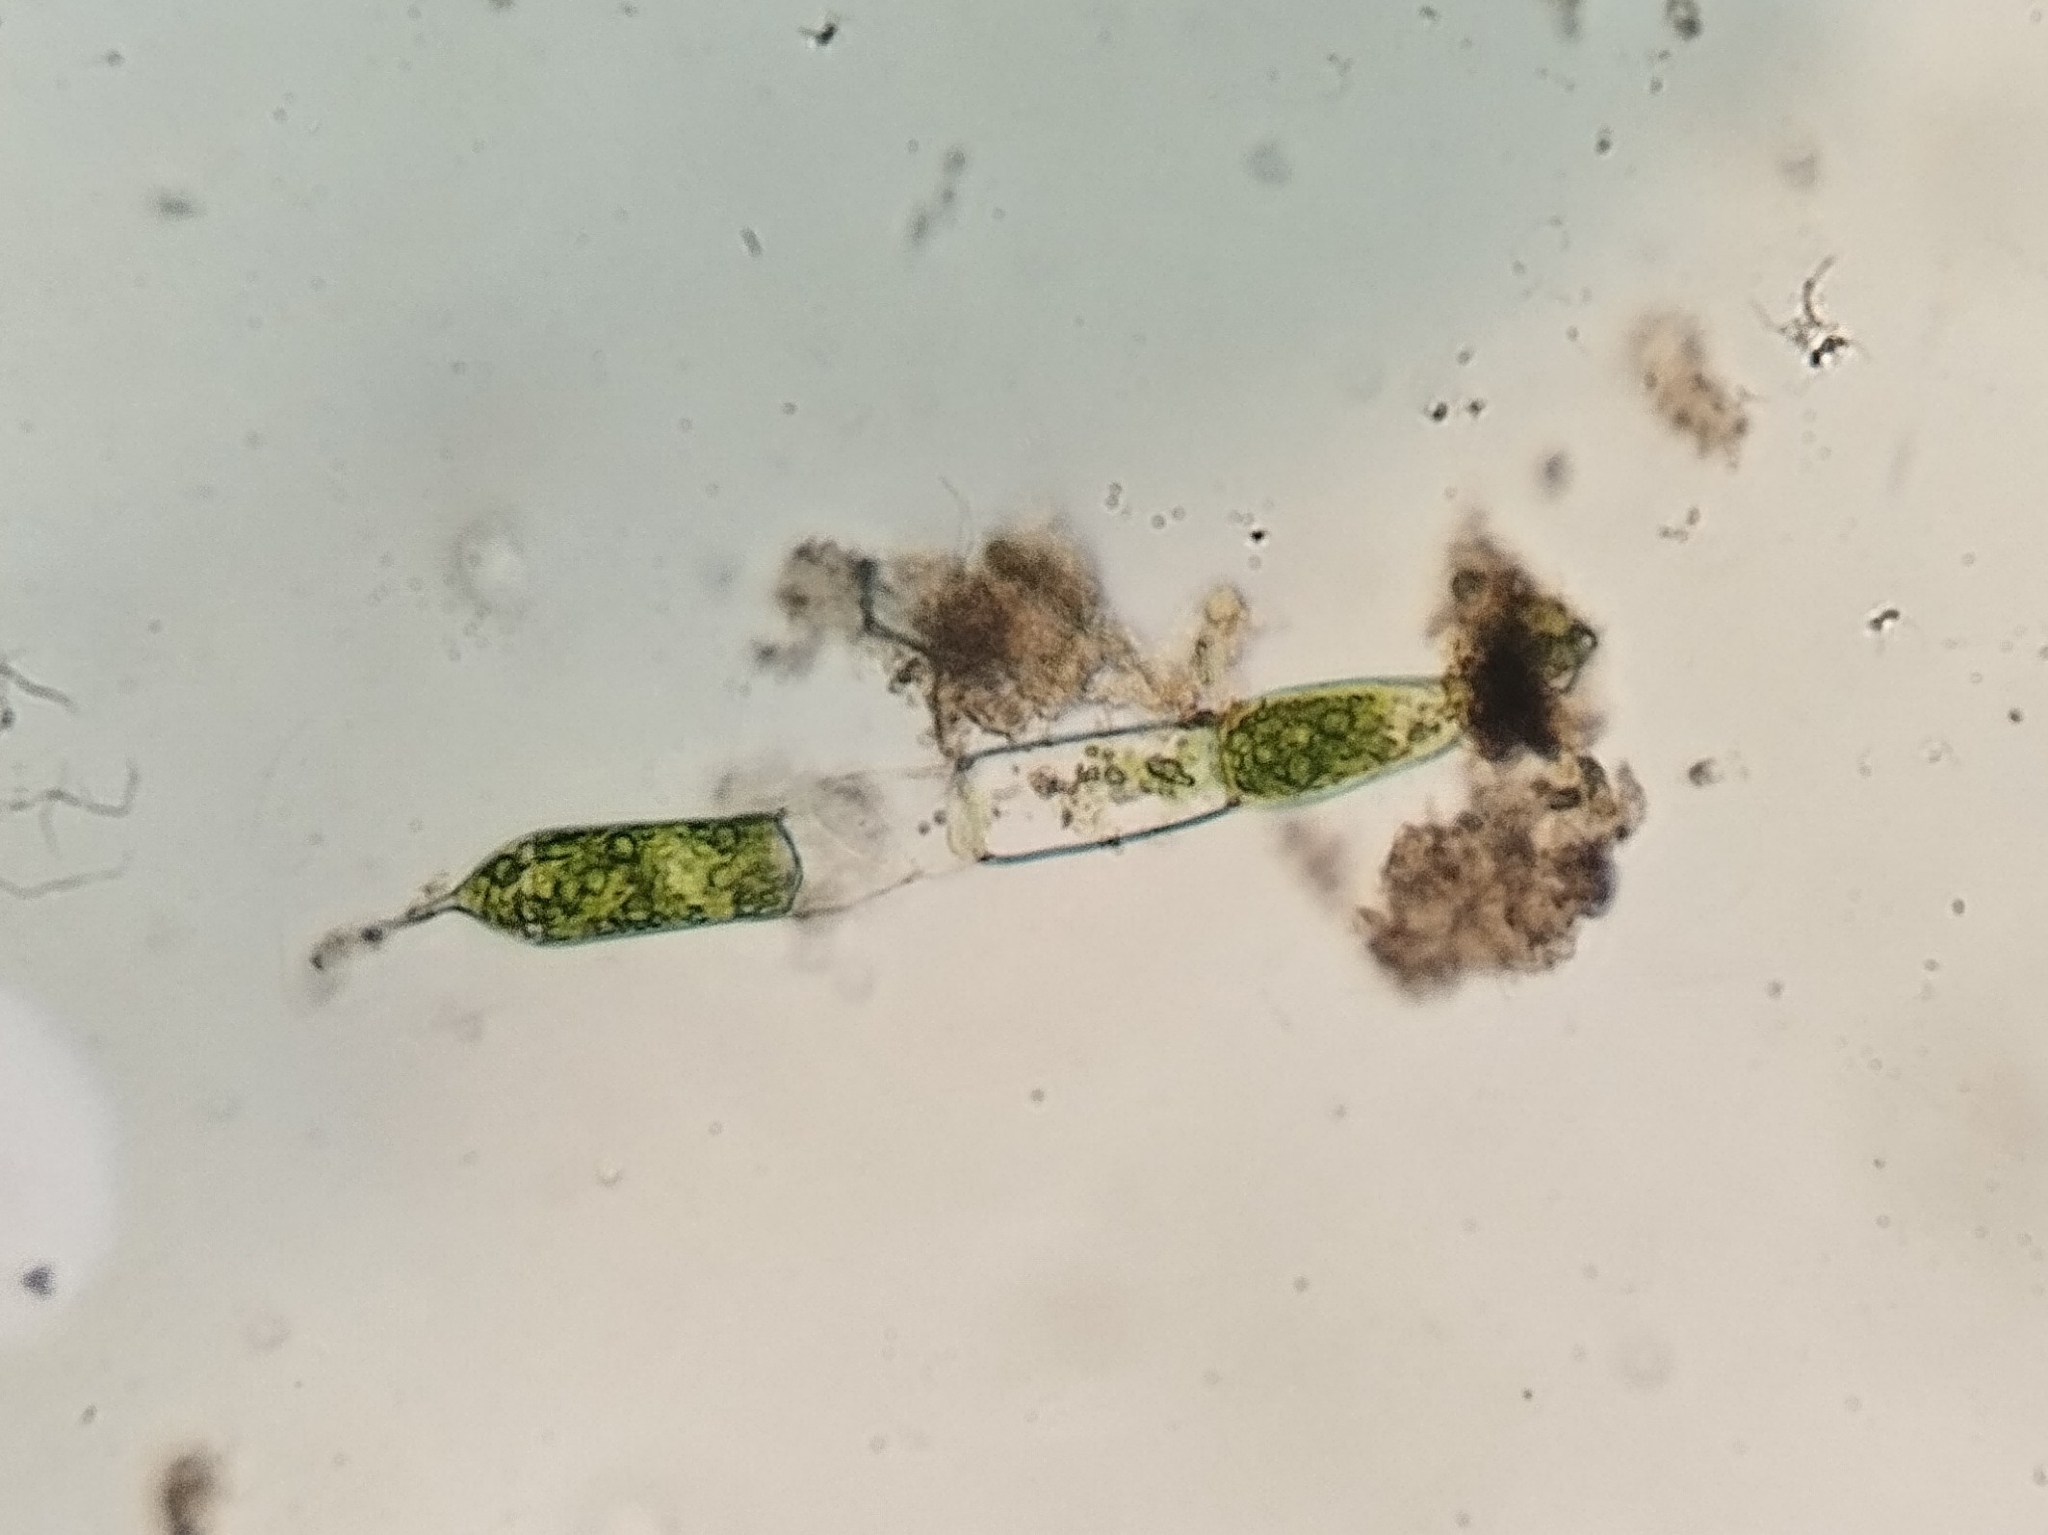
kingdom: Plantae
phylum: Chlorophyta
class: Chlorophyceae
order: Oedogoniales
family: Oedogoniaceae
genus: Oedogonium
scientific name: Oedogonium
